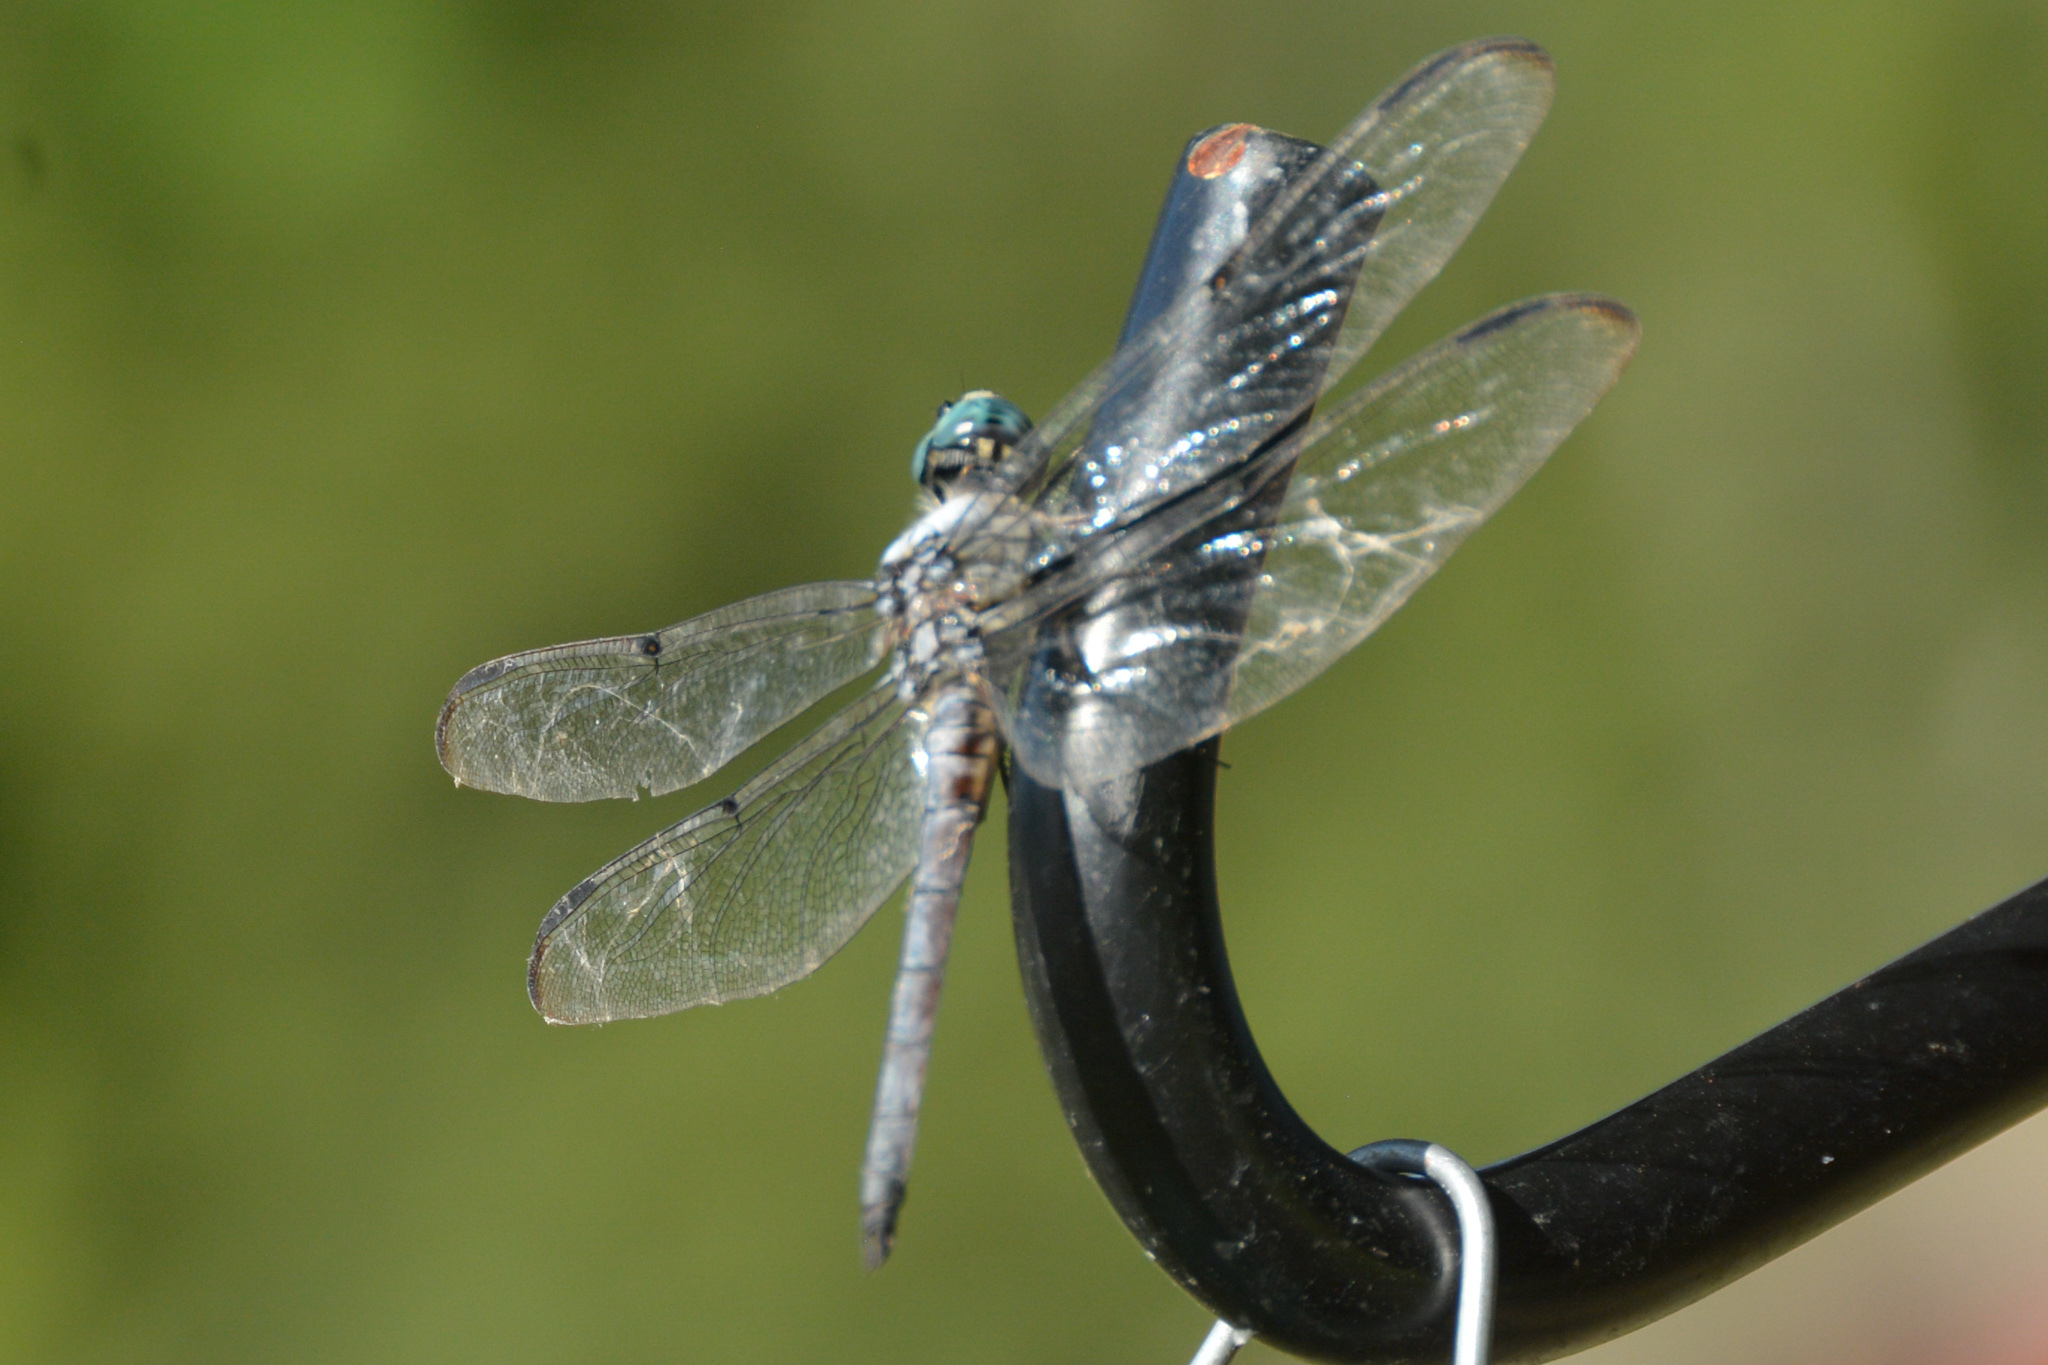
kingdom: Animalia
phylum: Arthropoda
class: Insecta
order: Odonata
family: Libellulidae
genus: Libellula
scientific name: Libellula vibrans
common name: Great blue skimmer
